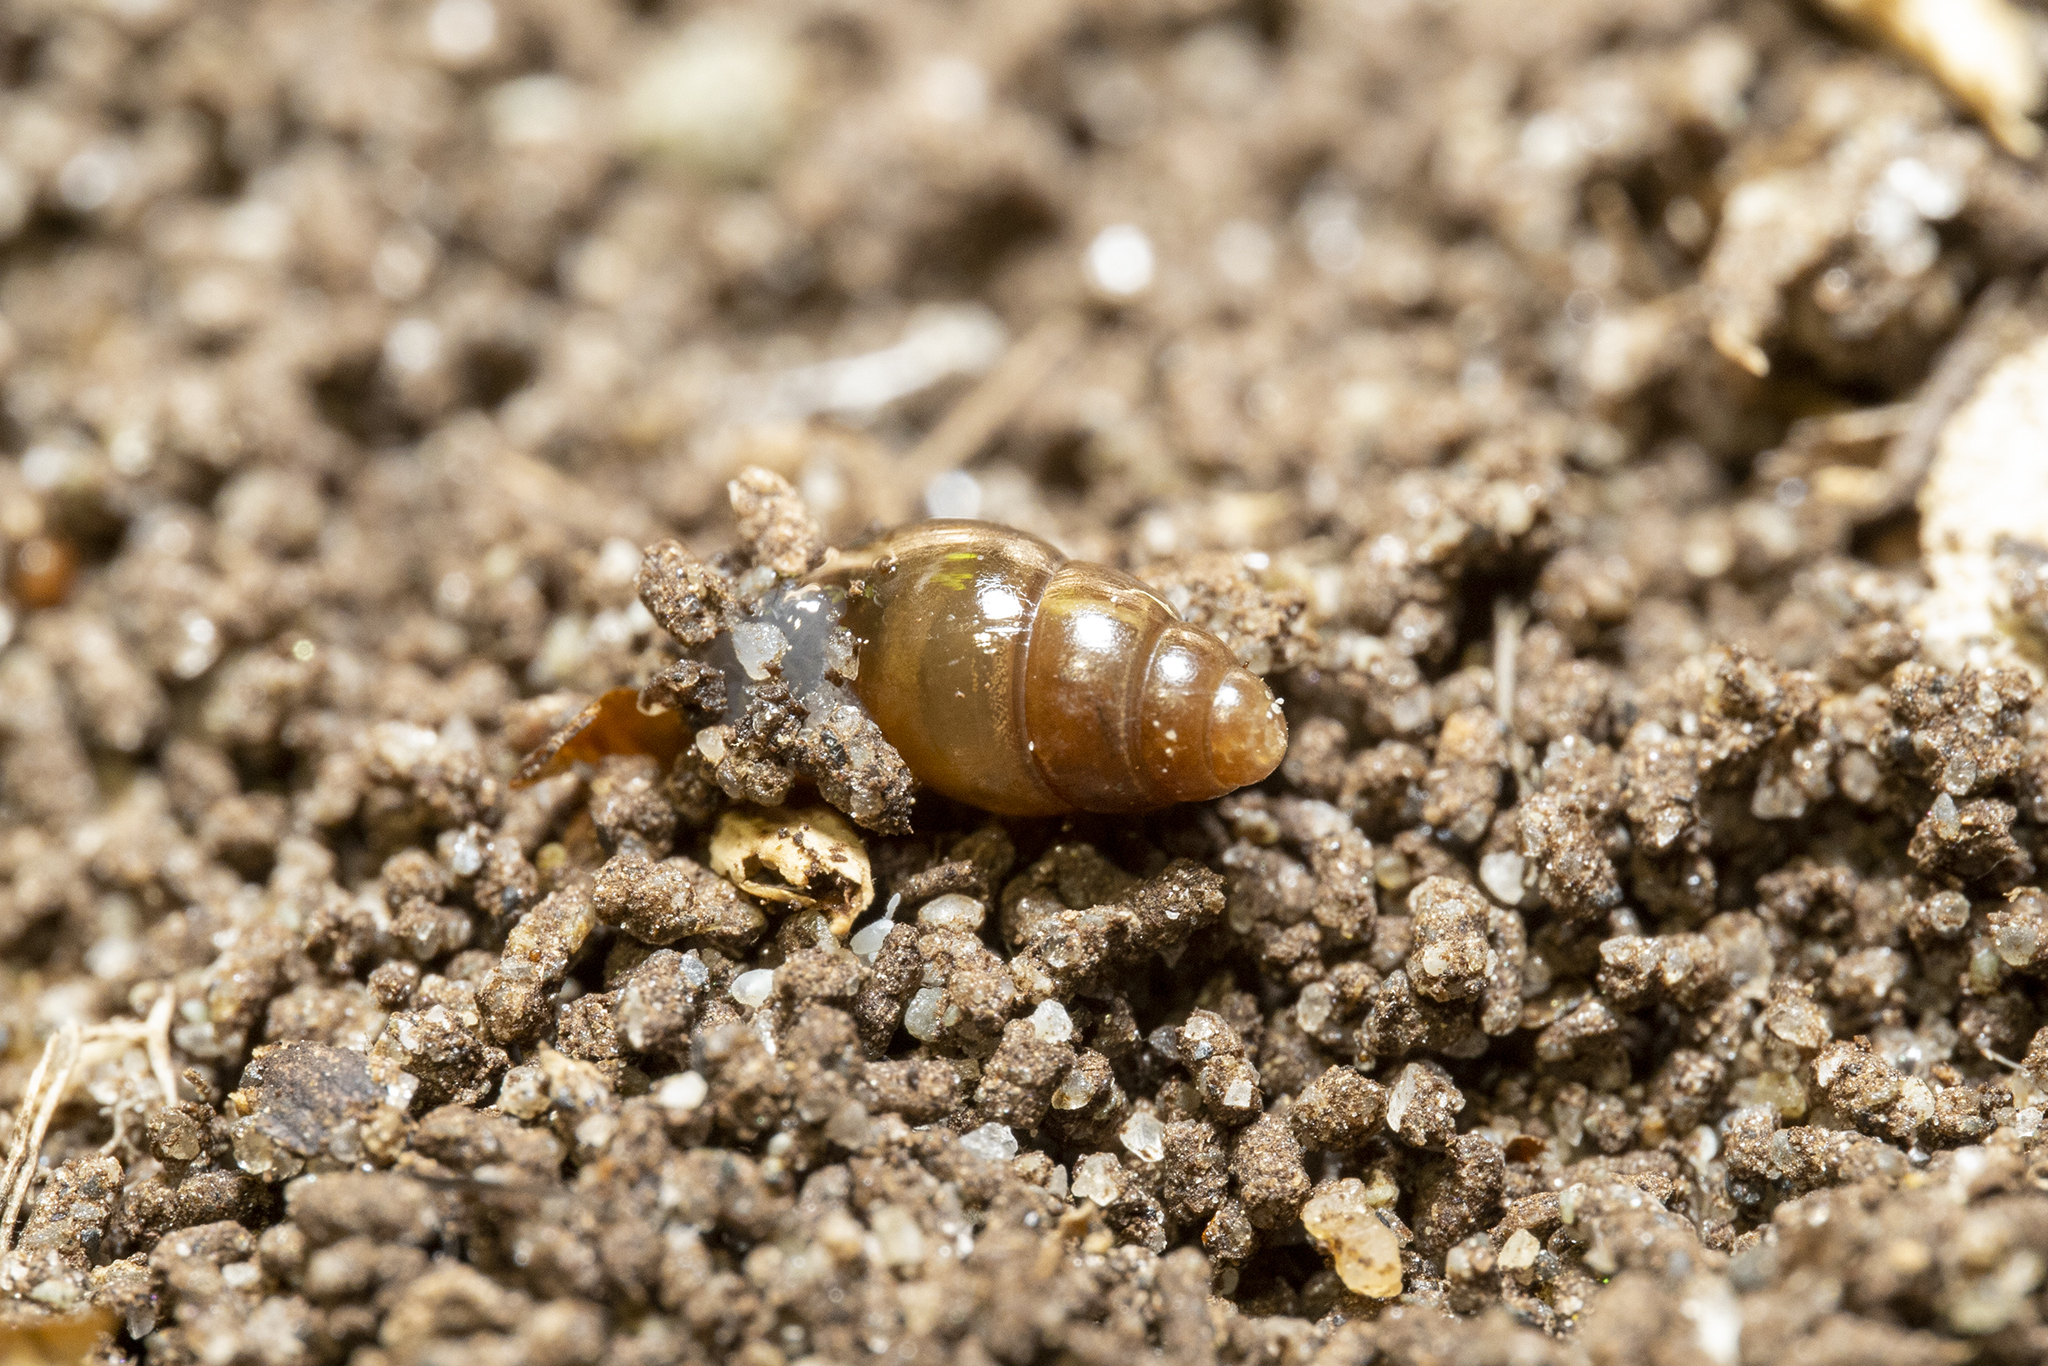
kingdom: Animalia
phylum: Mollusca
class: Gastropoda
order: Stylommatophora
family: Cochlicopidae
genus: Cochlicopa
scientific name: Cochlicopa lubrica
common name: Glossy pillar snail
